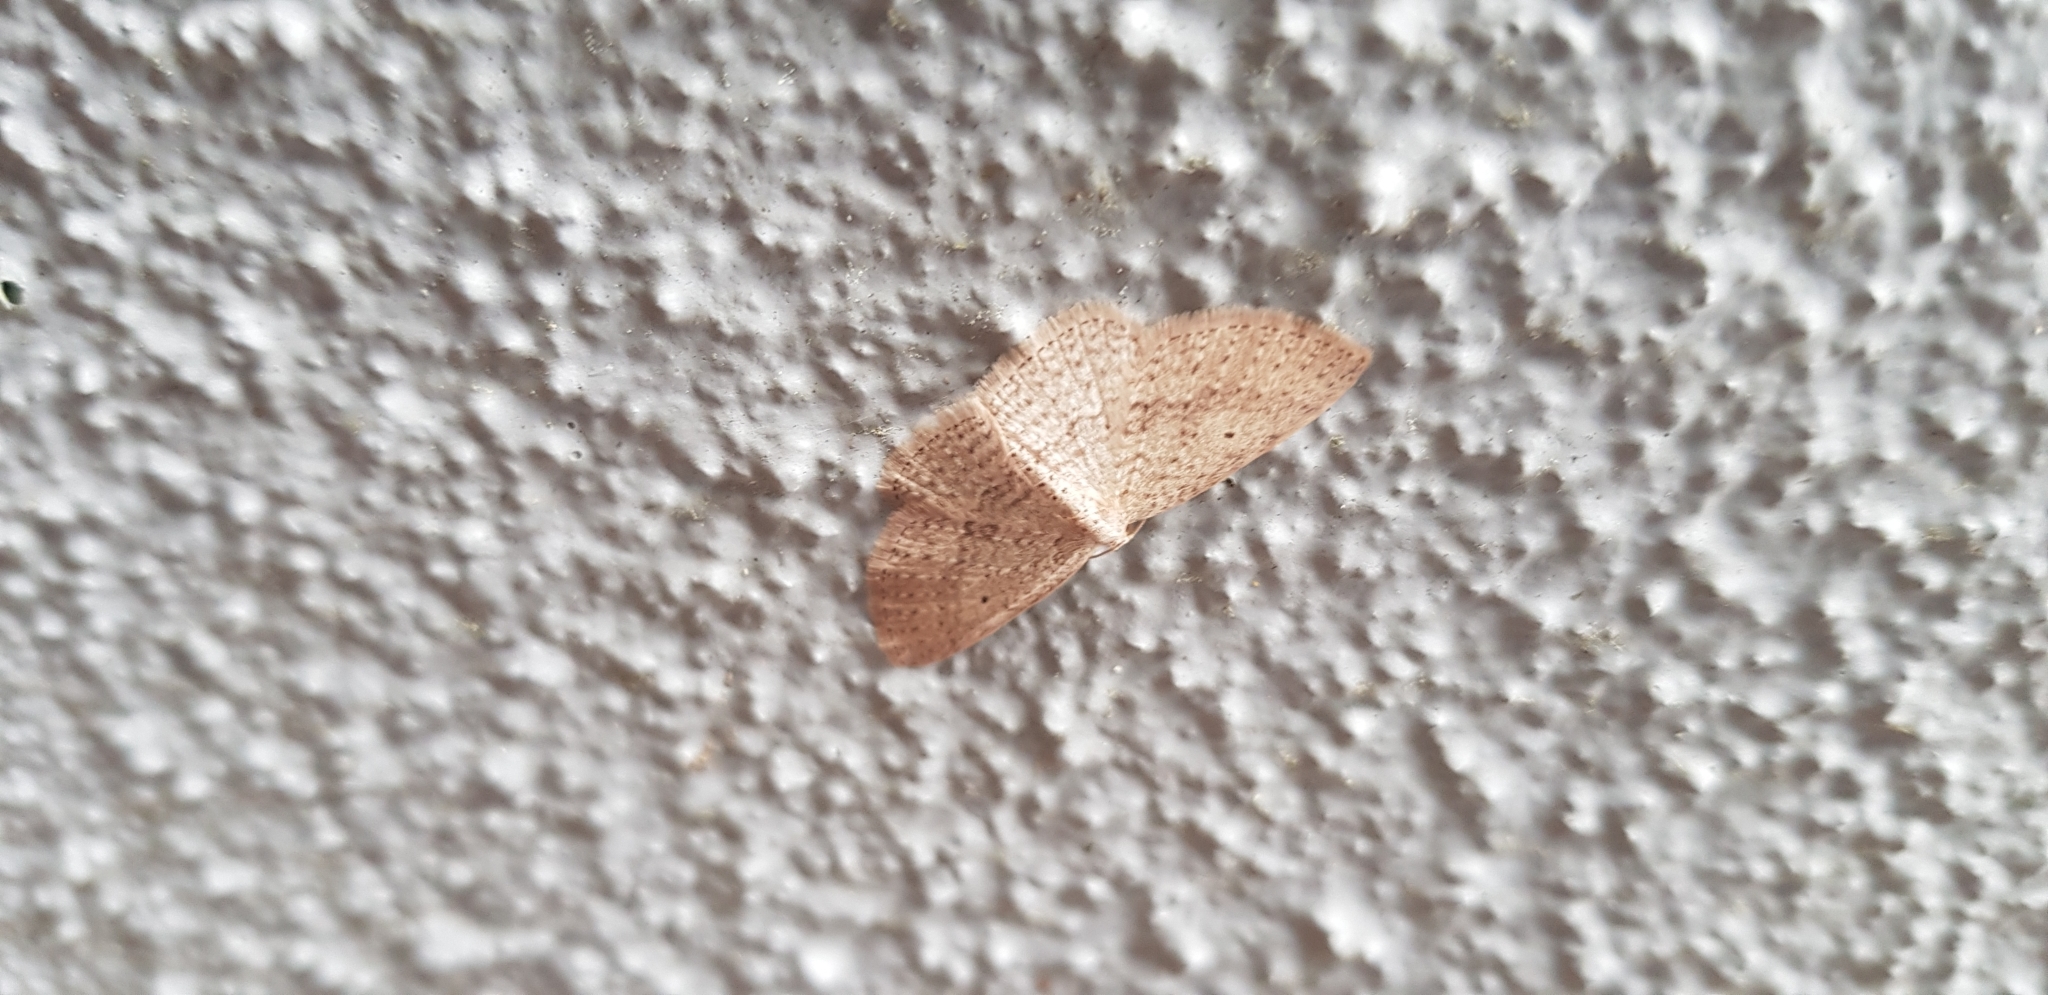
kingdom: Animalia
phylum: Arthropoda
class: Insecta
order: Lepidoptera
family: Geometridae
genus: Poecilasthena
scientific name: Poecilasthena schistaria
